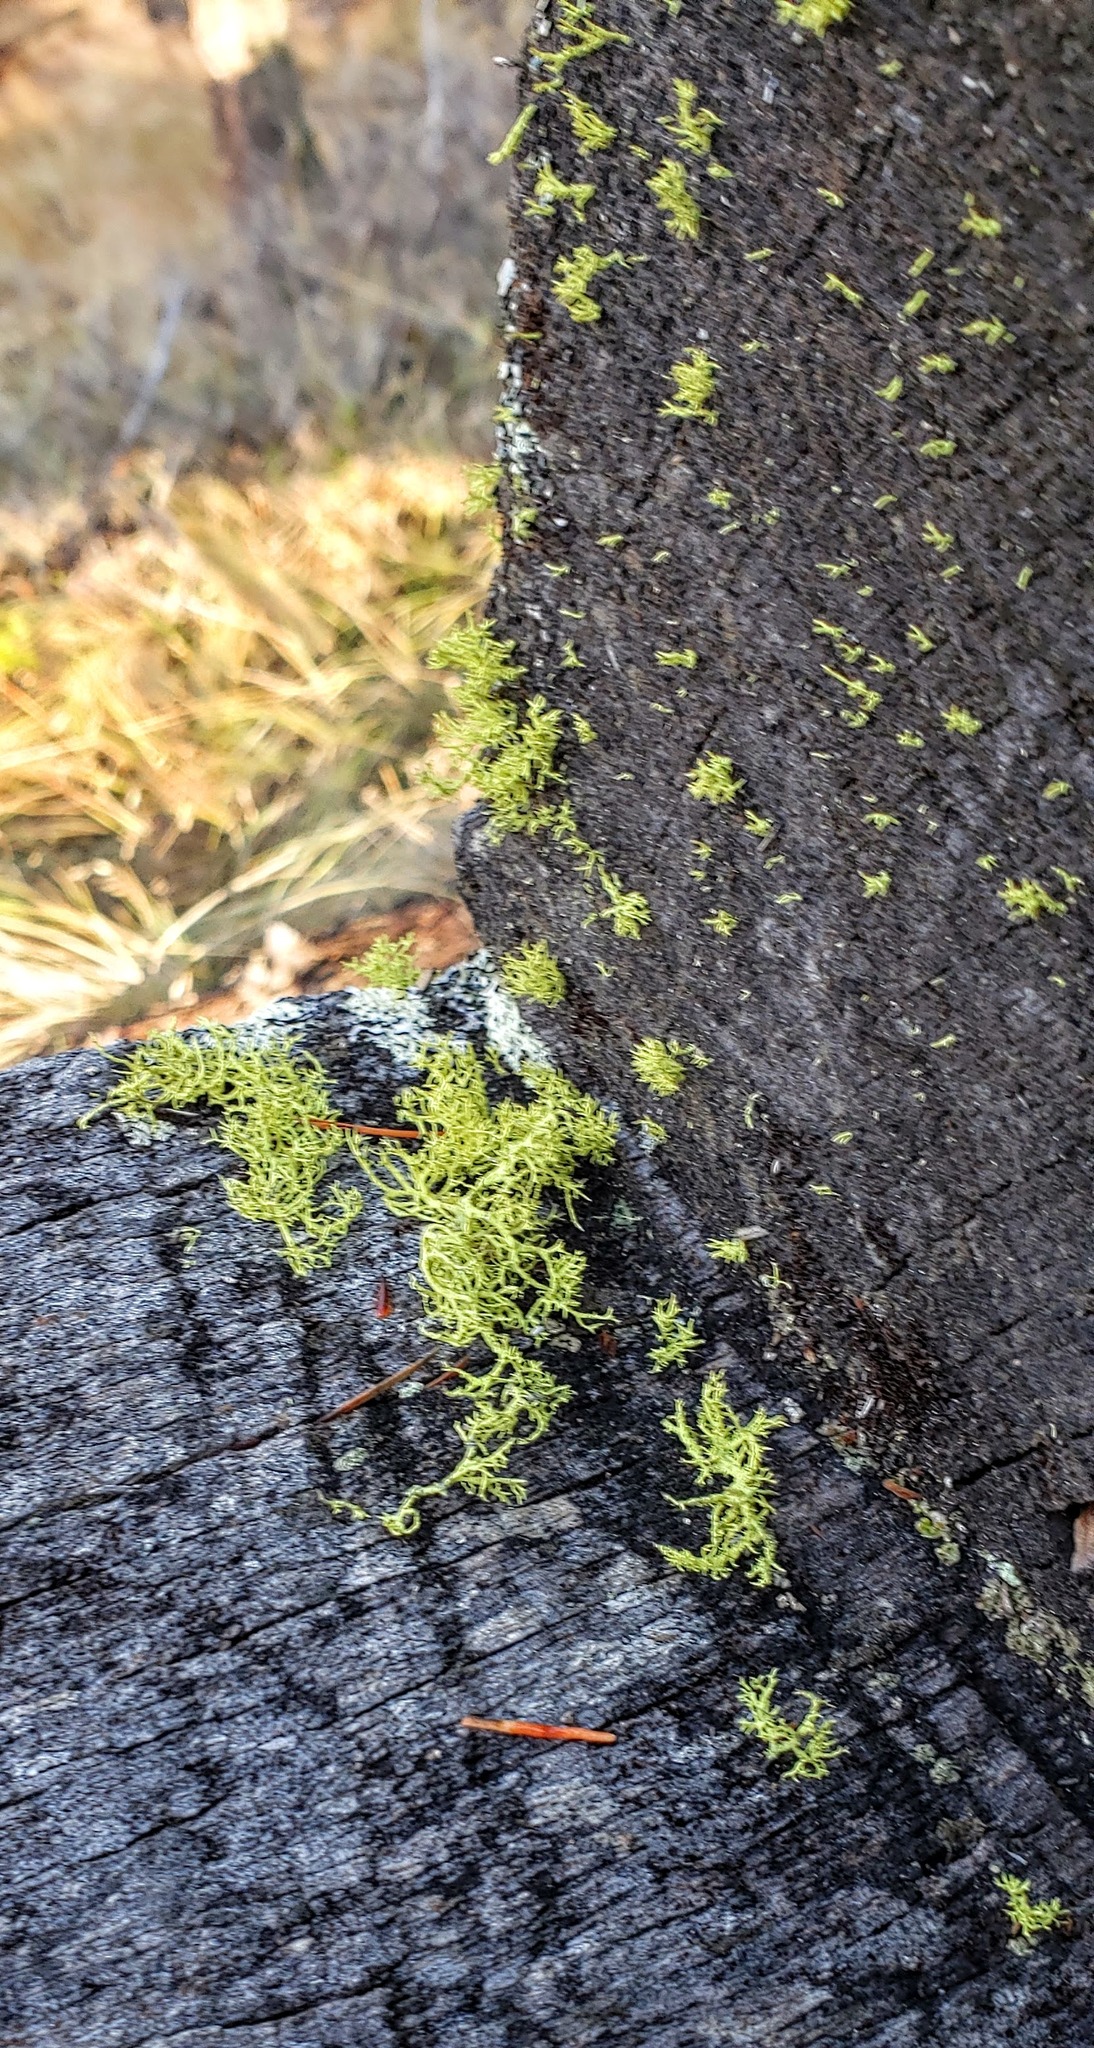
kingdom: Fungi
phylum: Ascomycota
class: Lecanoromycetes
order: Lecanorales
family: Parmeliaceae
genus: Letharia
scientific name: Letharia vulpina
